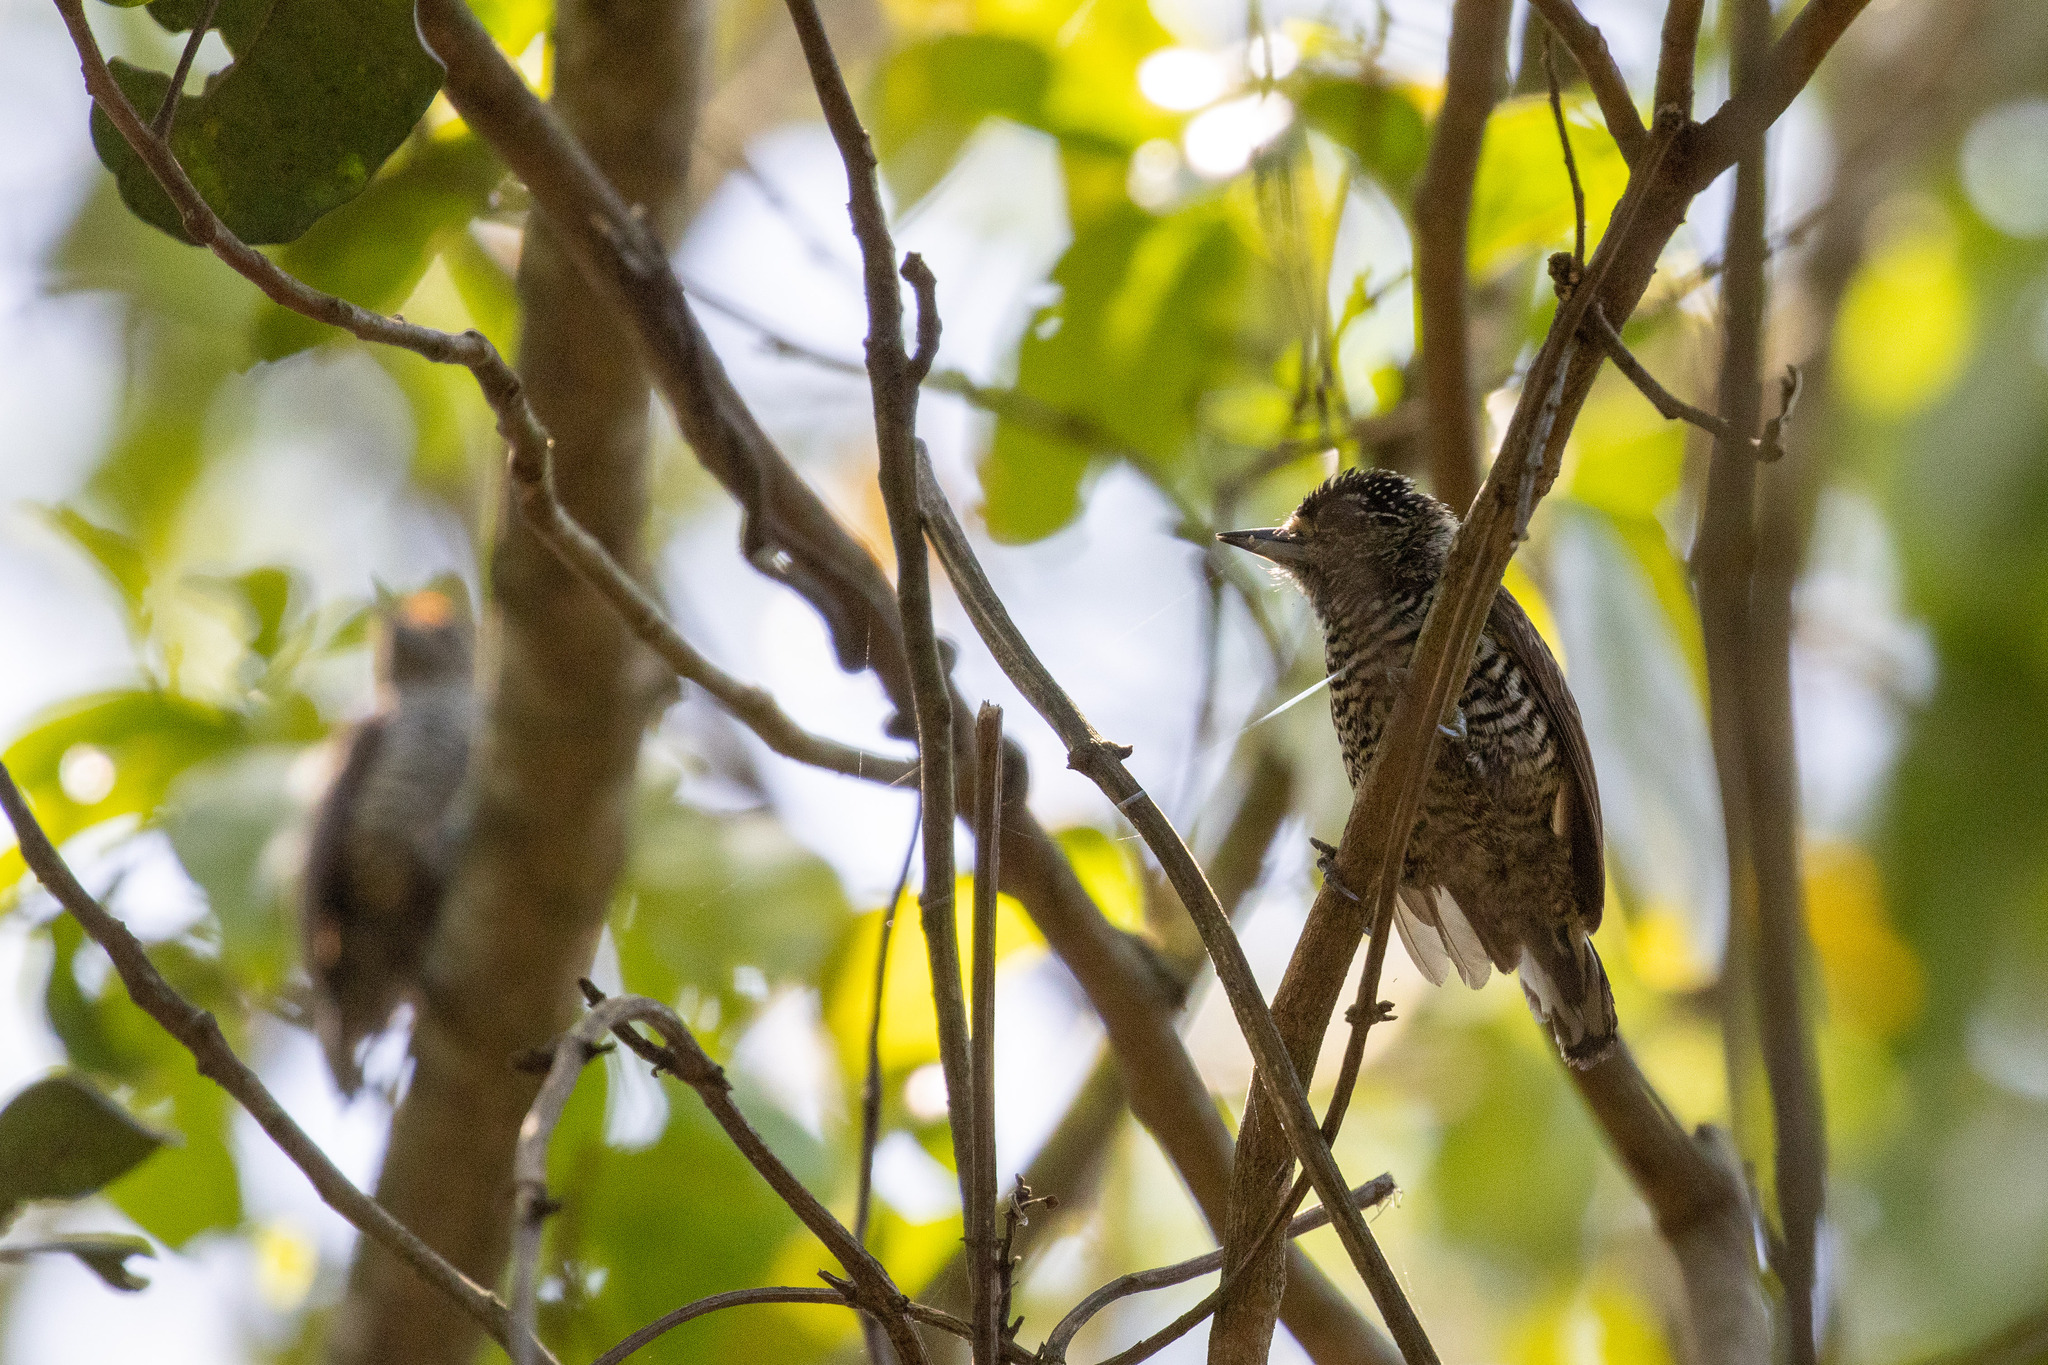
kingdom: Animalia
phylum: Chordata
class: Aves
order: Piciformes
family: Picidae
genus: Picumnus
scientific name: Picumnus cirratus
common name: White-barred piculet
